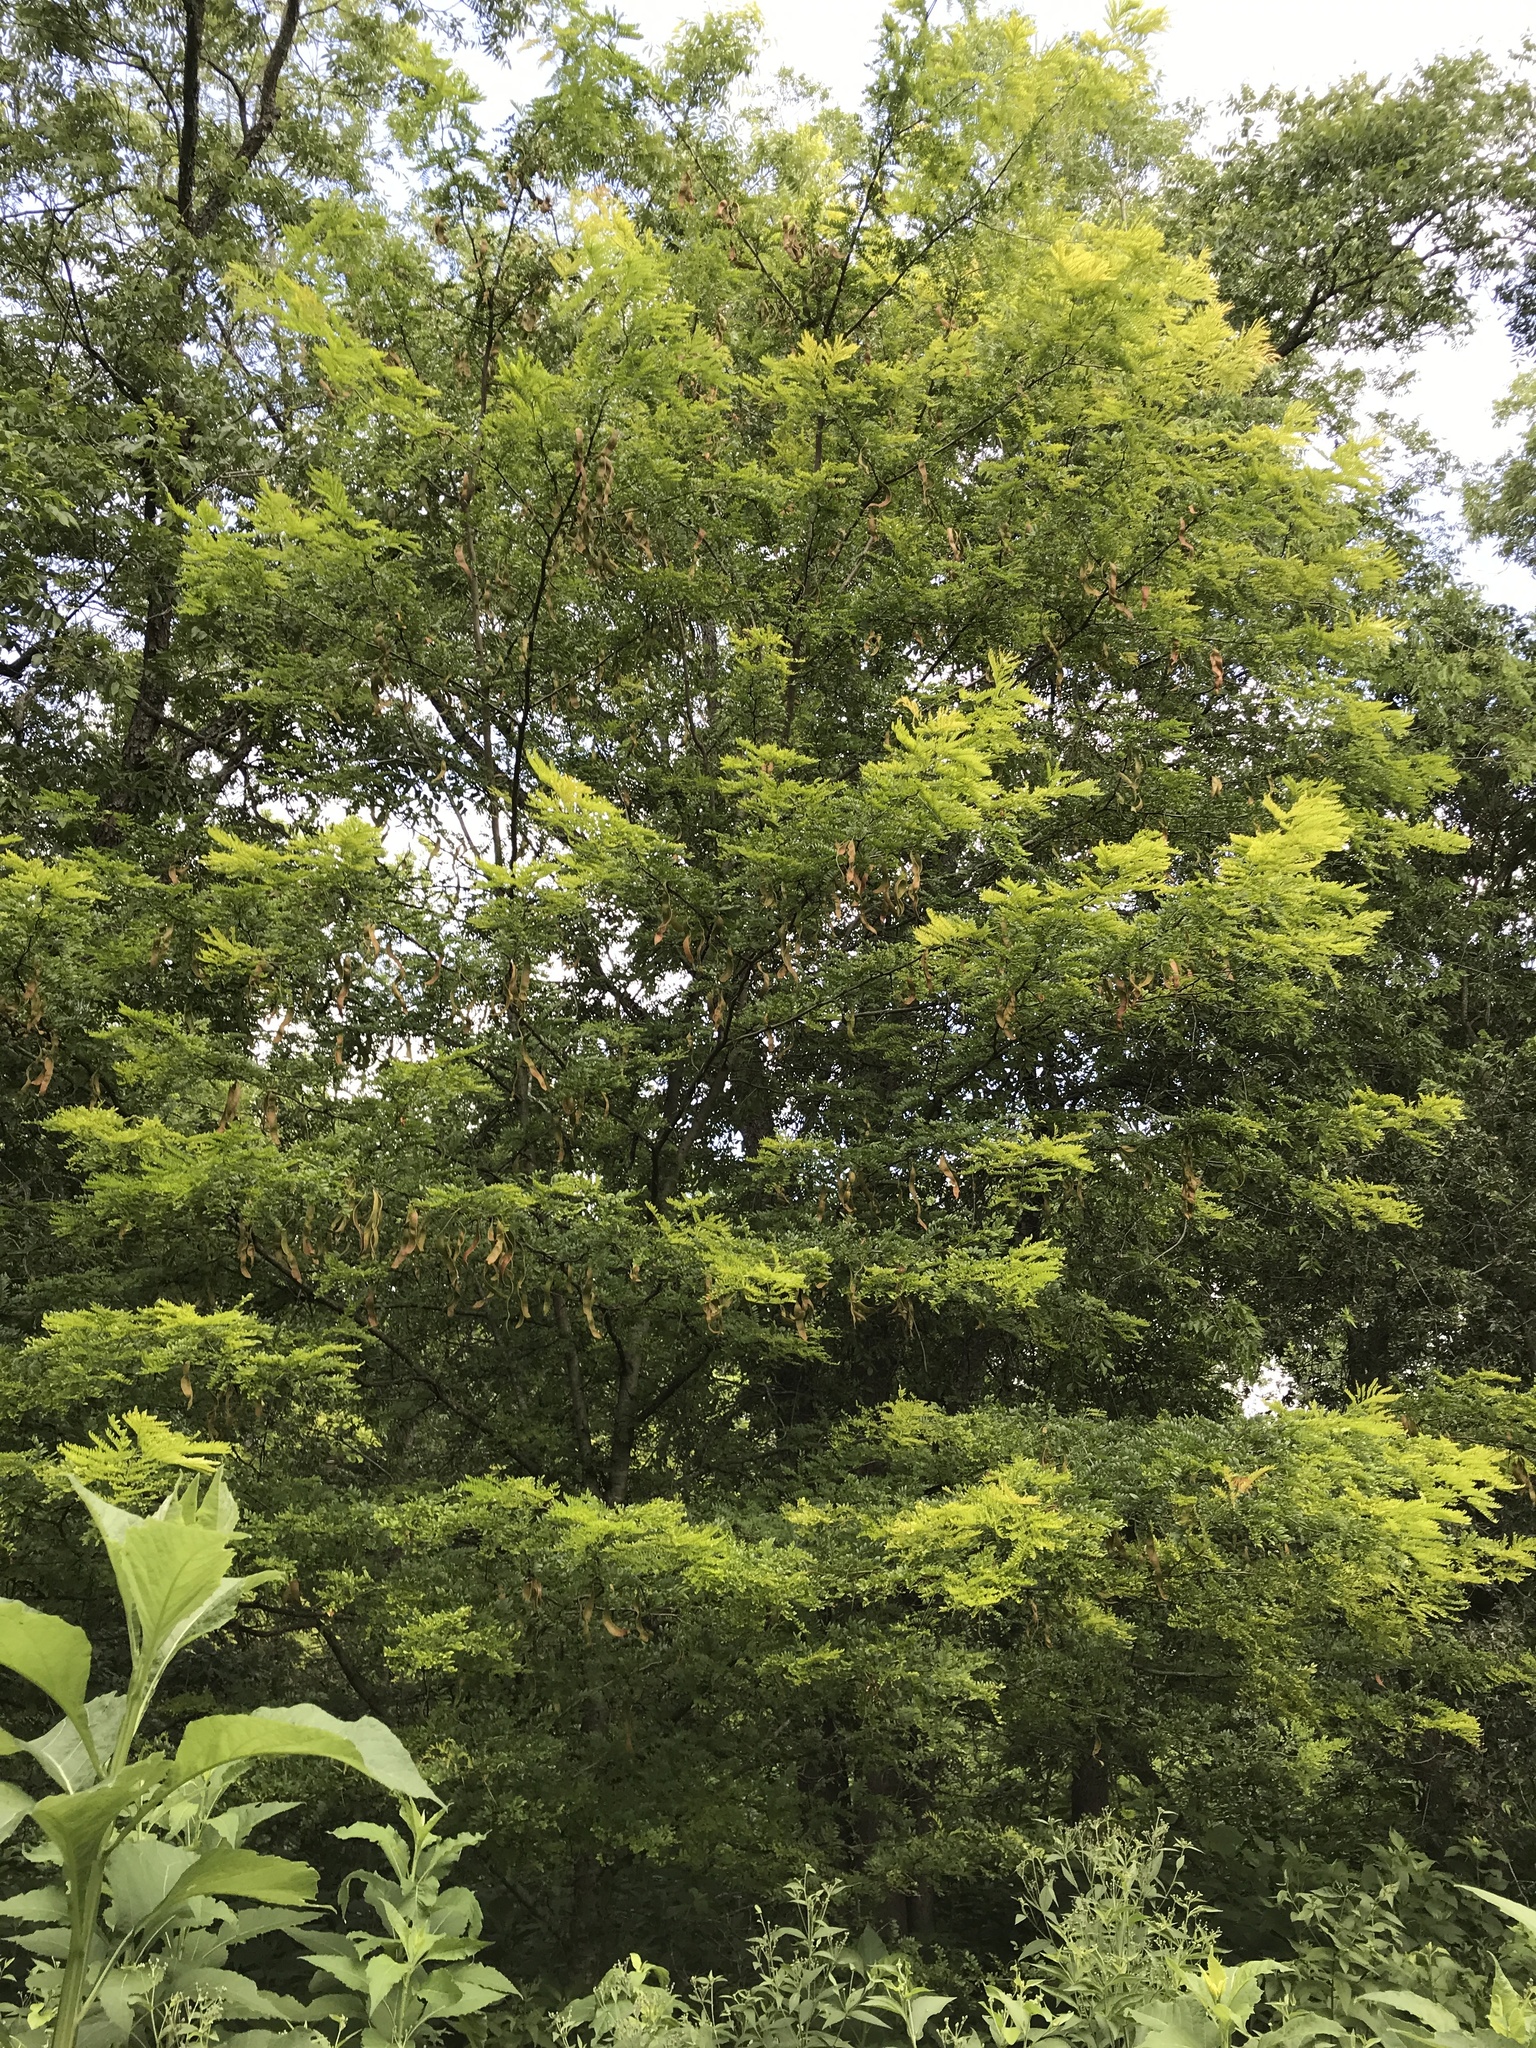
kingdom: Plantae
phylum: Tracheophyta
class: Magnoliopsida
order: Fabales
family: Fabaceae
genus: Gleditsia
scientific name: Gleditsia triacanthos
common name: Common honeylocust
